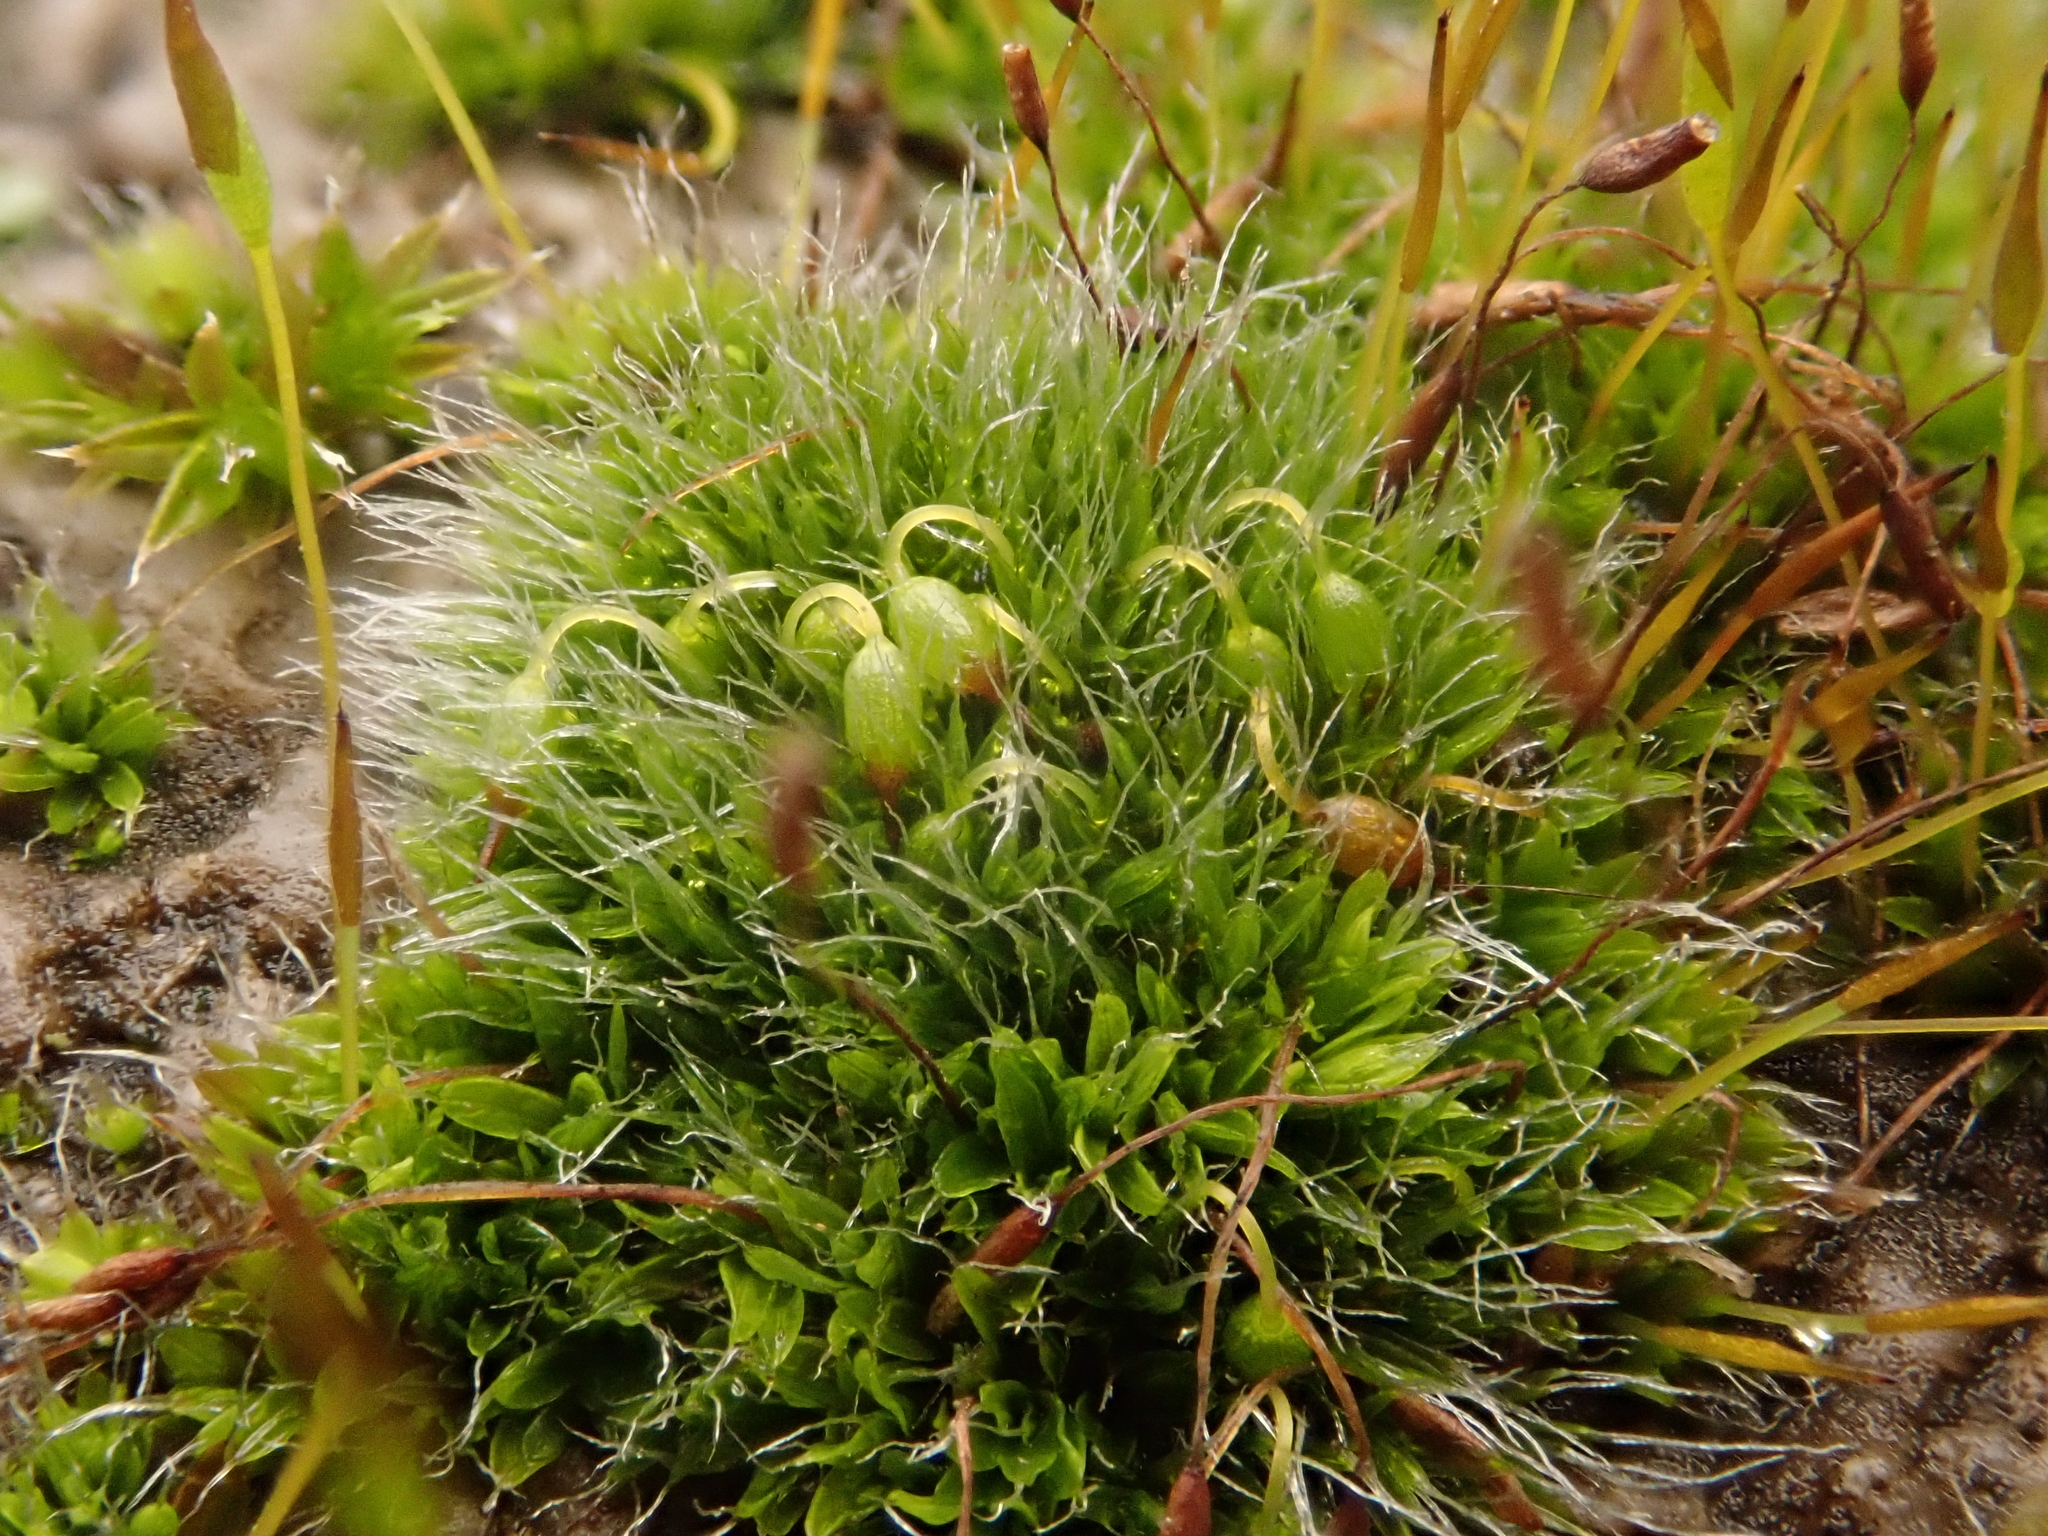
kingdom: Plantae
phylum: Bryophyta
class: Bryopsida
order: Grimmiales
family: Grimmiaceae
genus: Grimmia
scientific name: Grimmia pulvinata
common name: Grey-cushioned grimmia
